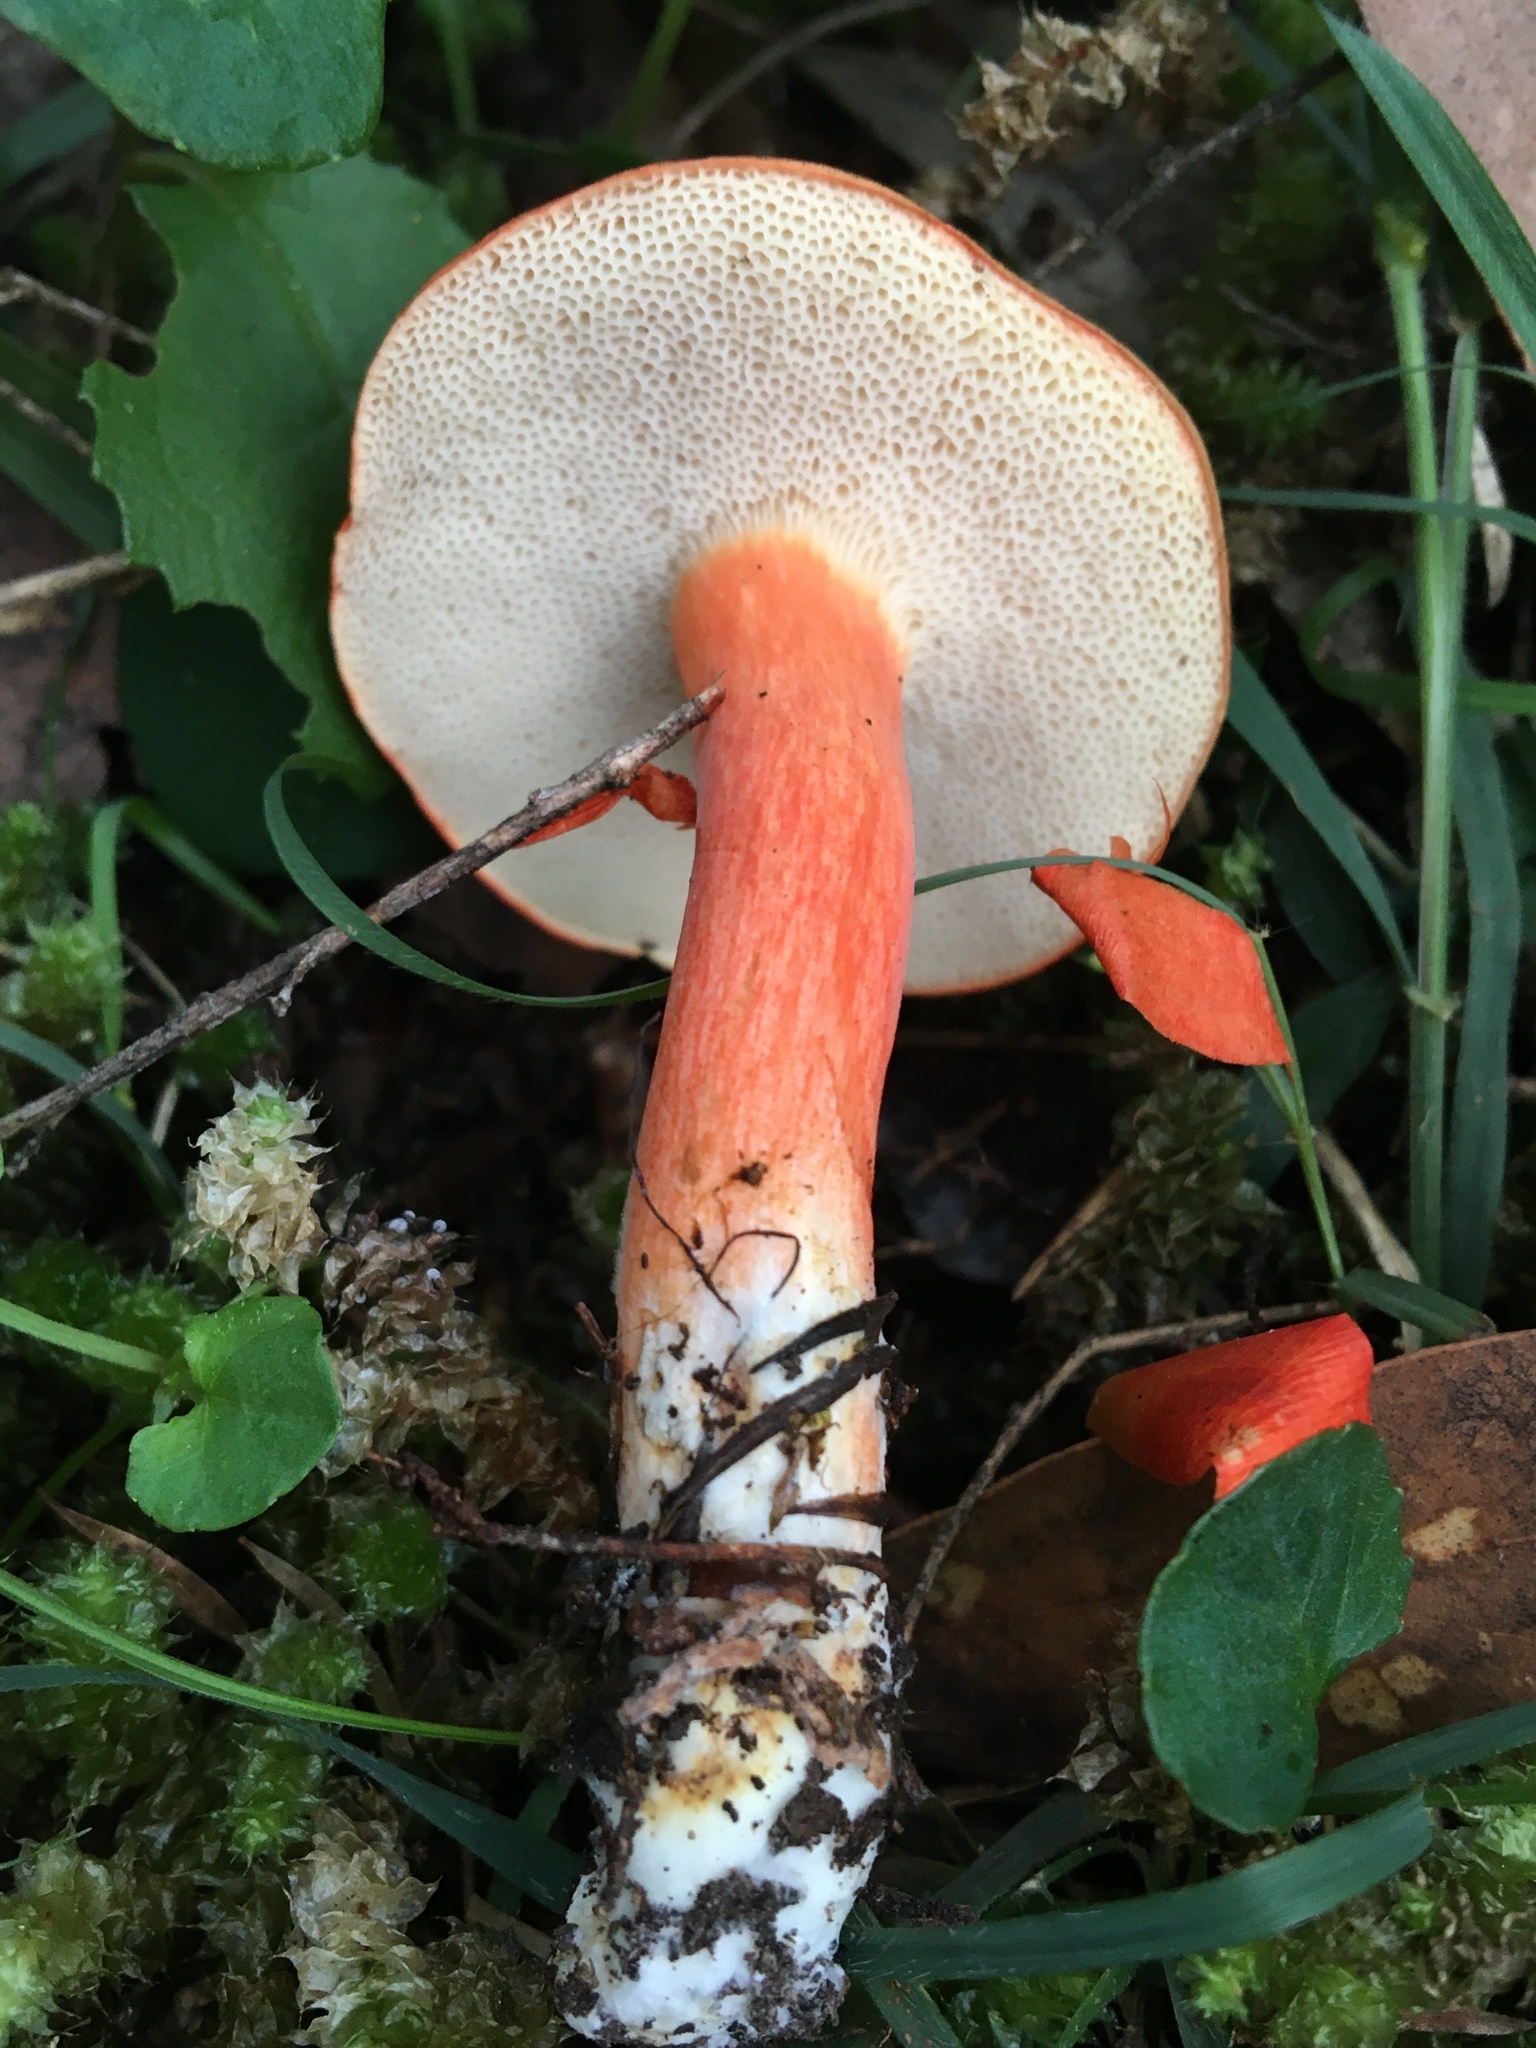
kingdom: Fungi
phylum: Basidiomycota
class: Agaricomycetes
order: Boletales
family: Boletaceae
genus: Tylopilus
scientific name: Tylopilus balloui
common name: Burnt-orange bolete
